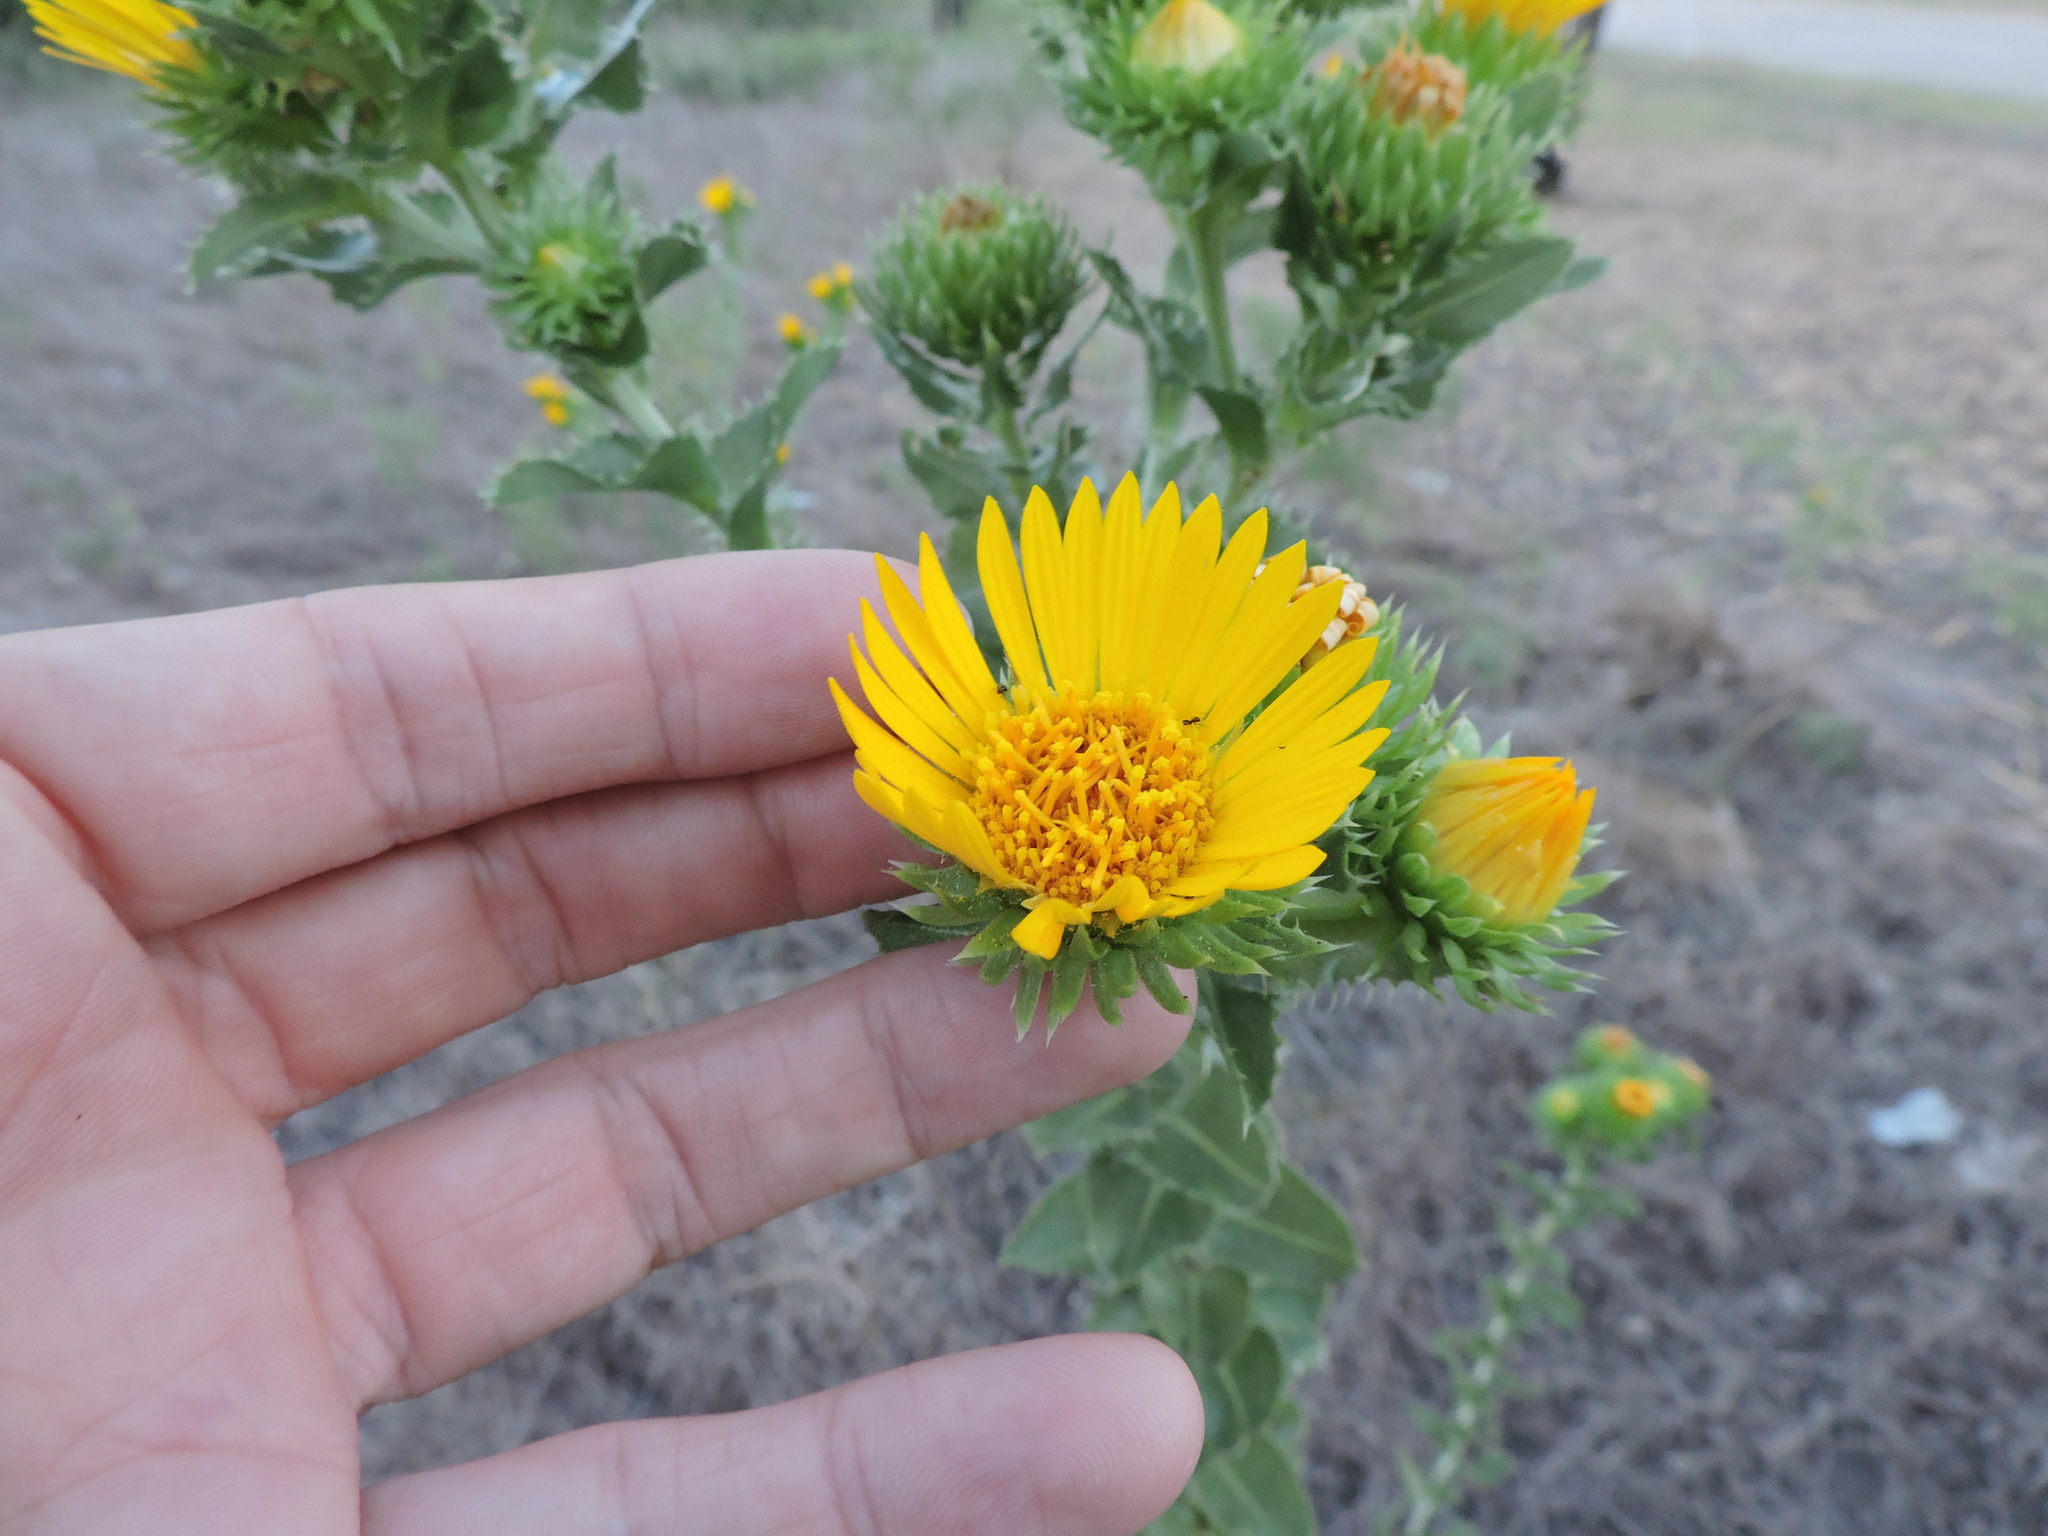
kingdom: Plantae
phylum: Tracheophyta
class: Magnoliopsida
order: Asterales
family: Asteraceae
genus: Grindelia
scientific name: Grindelia ciliata
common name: Goldenweed
